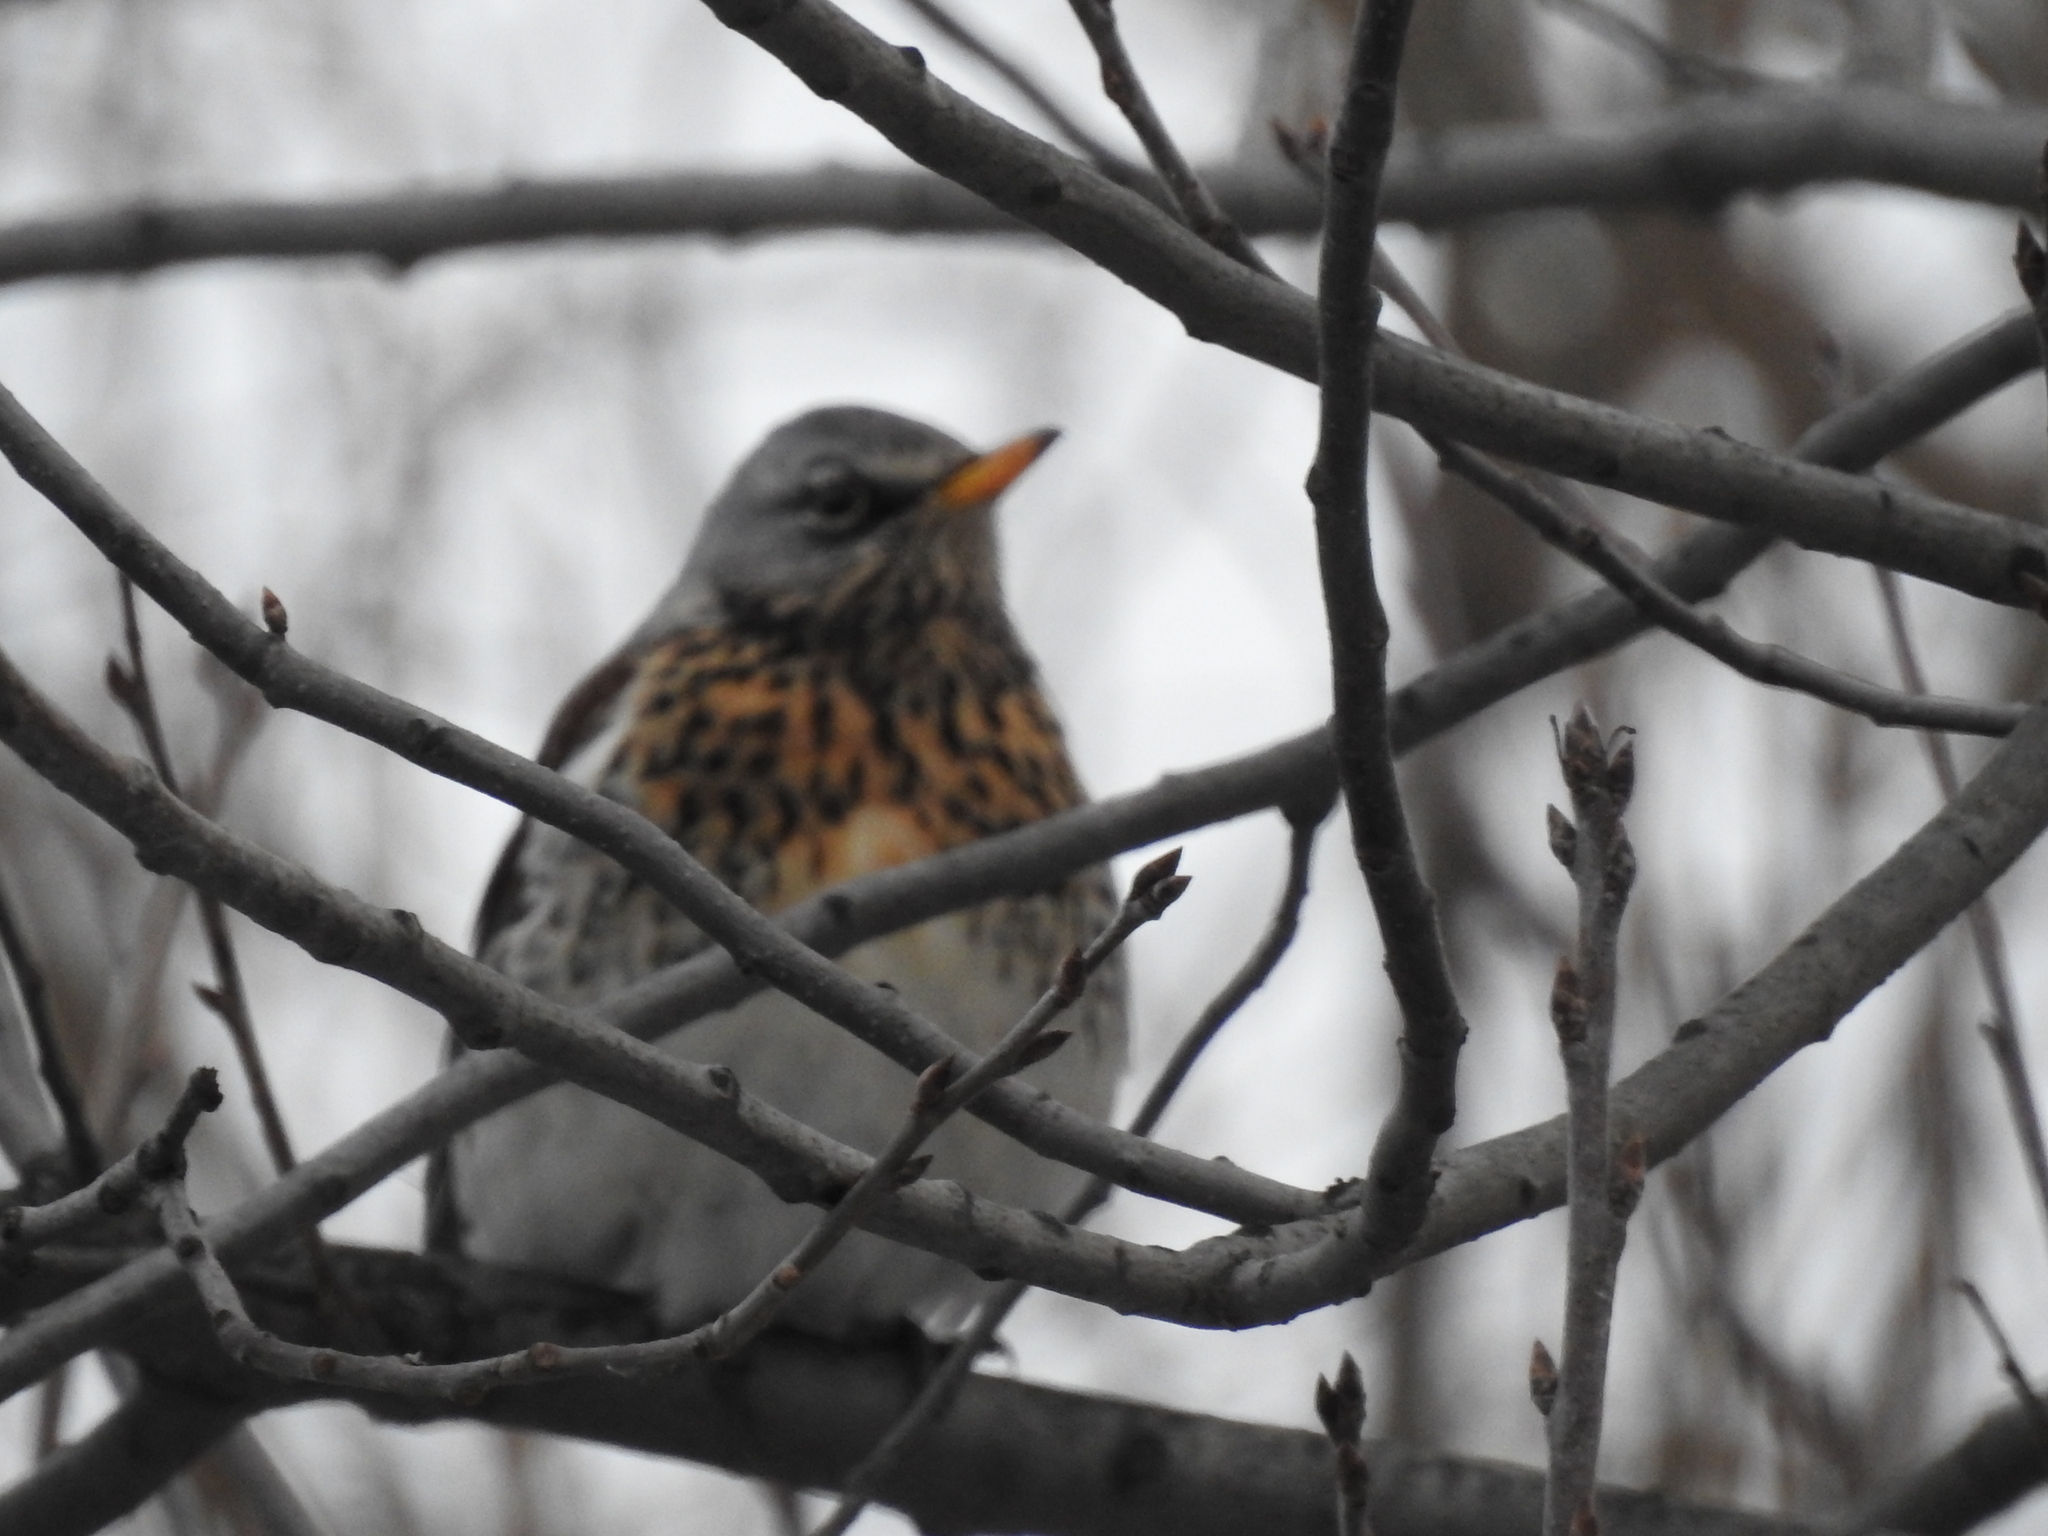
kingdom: Animalia
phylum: Chordata
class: Aves
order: Passeriformes
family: Turdidae
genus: Turdus
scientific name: Turdus pilaris
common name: Fieldfare
